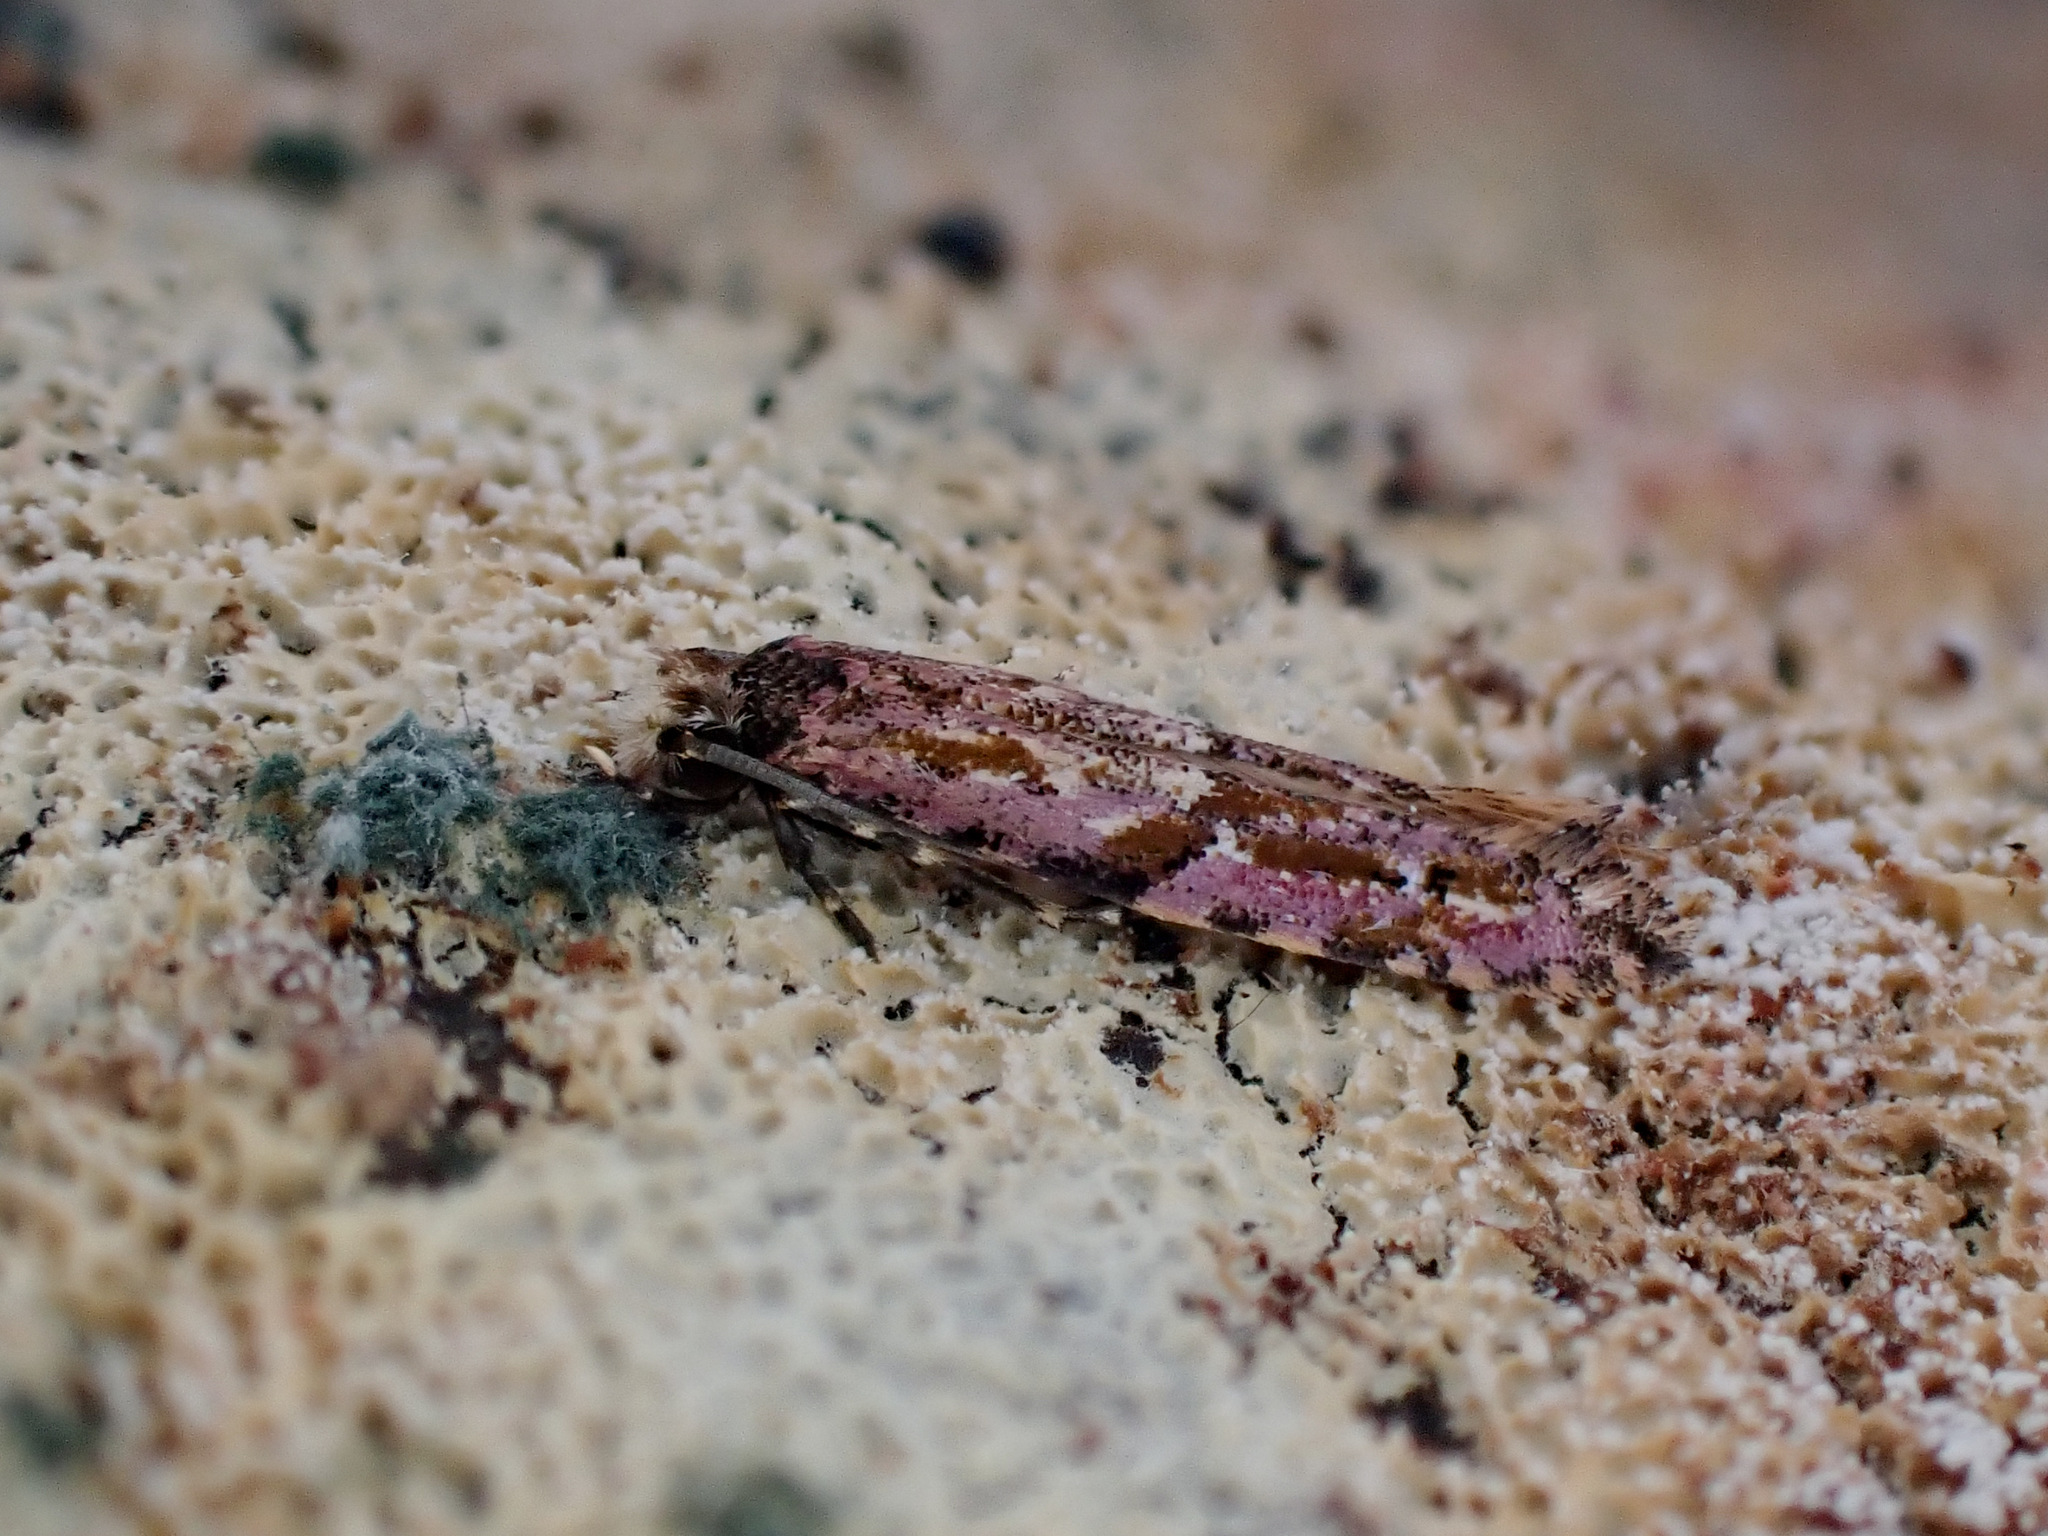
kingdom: Animalia
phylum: Arthropoda
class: Insecta
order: Lepidoptera
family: Tineidae
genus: Crypsitricha
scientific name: Crypsitricha roseata
